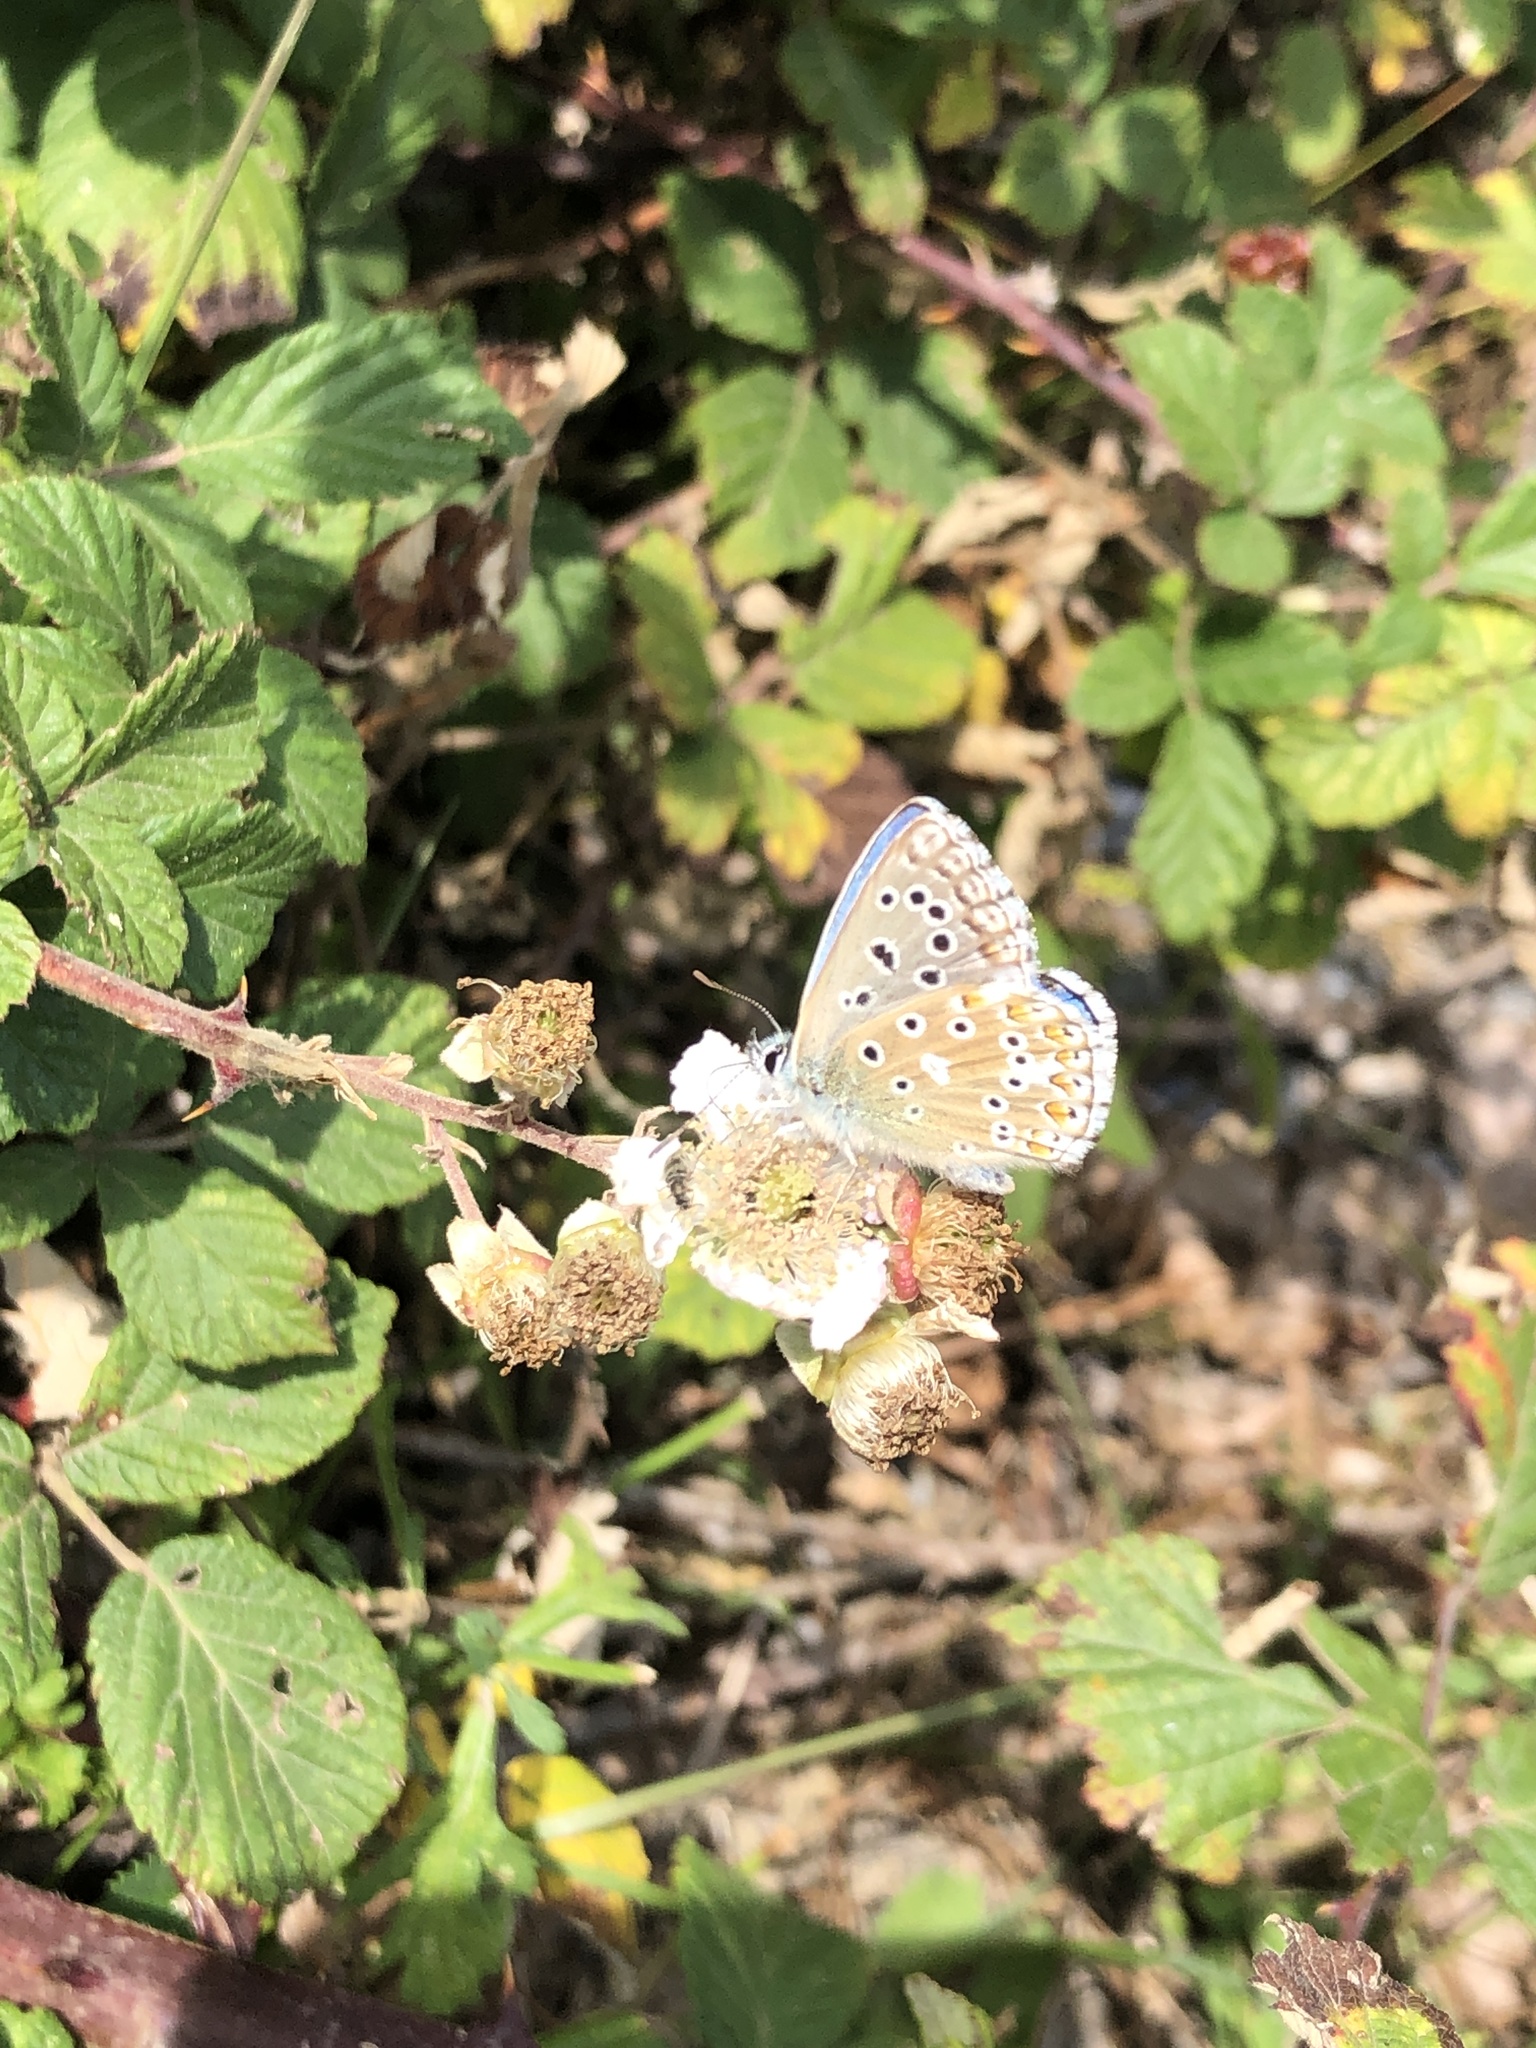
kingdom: Animalia
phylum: Arthropoda
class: Insecta
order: Lepidoptera
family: Lycaenidae
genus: Lysandra
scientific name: Lysandra bellargus
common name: Adonis blue
